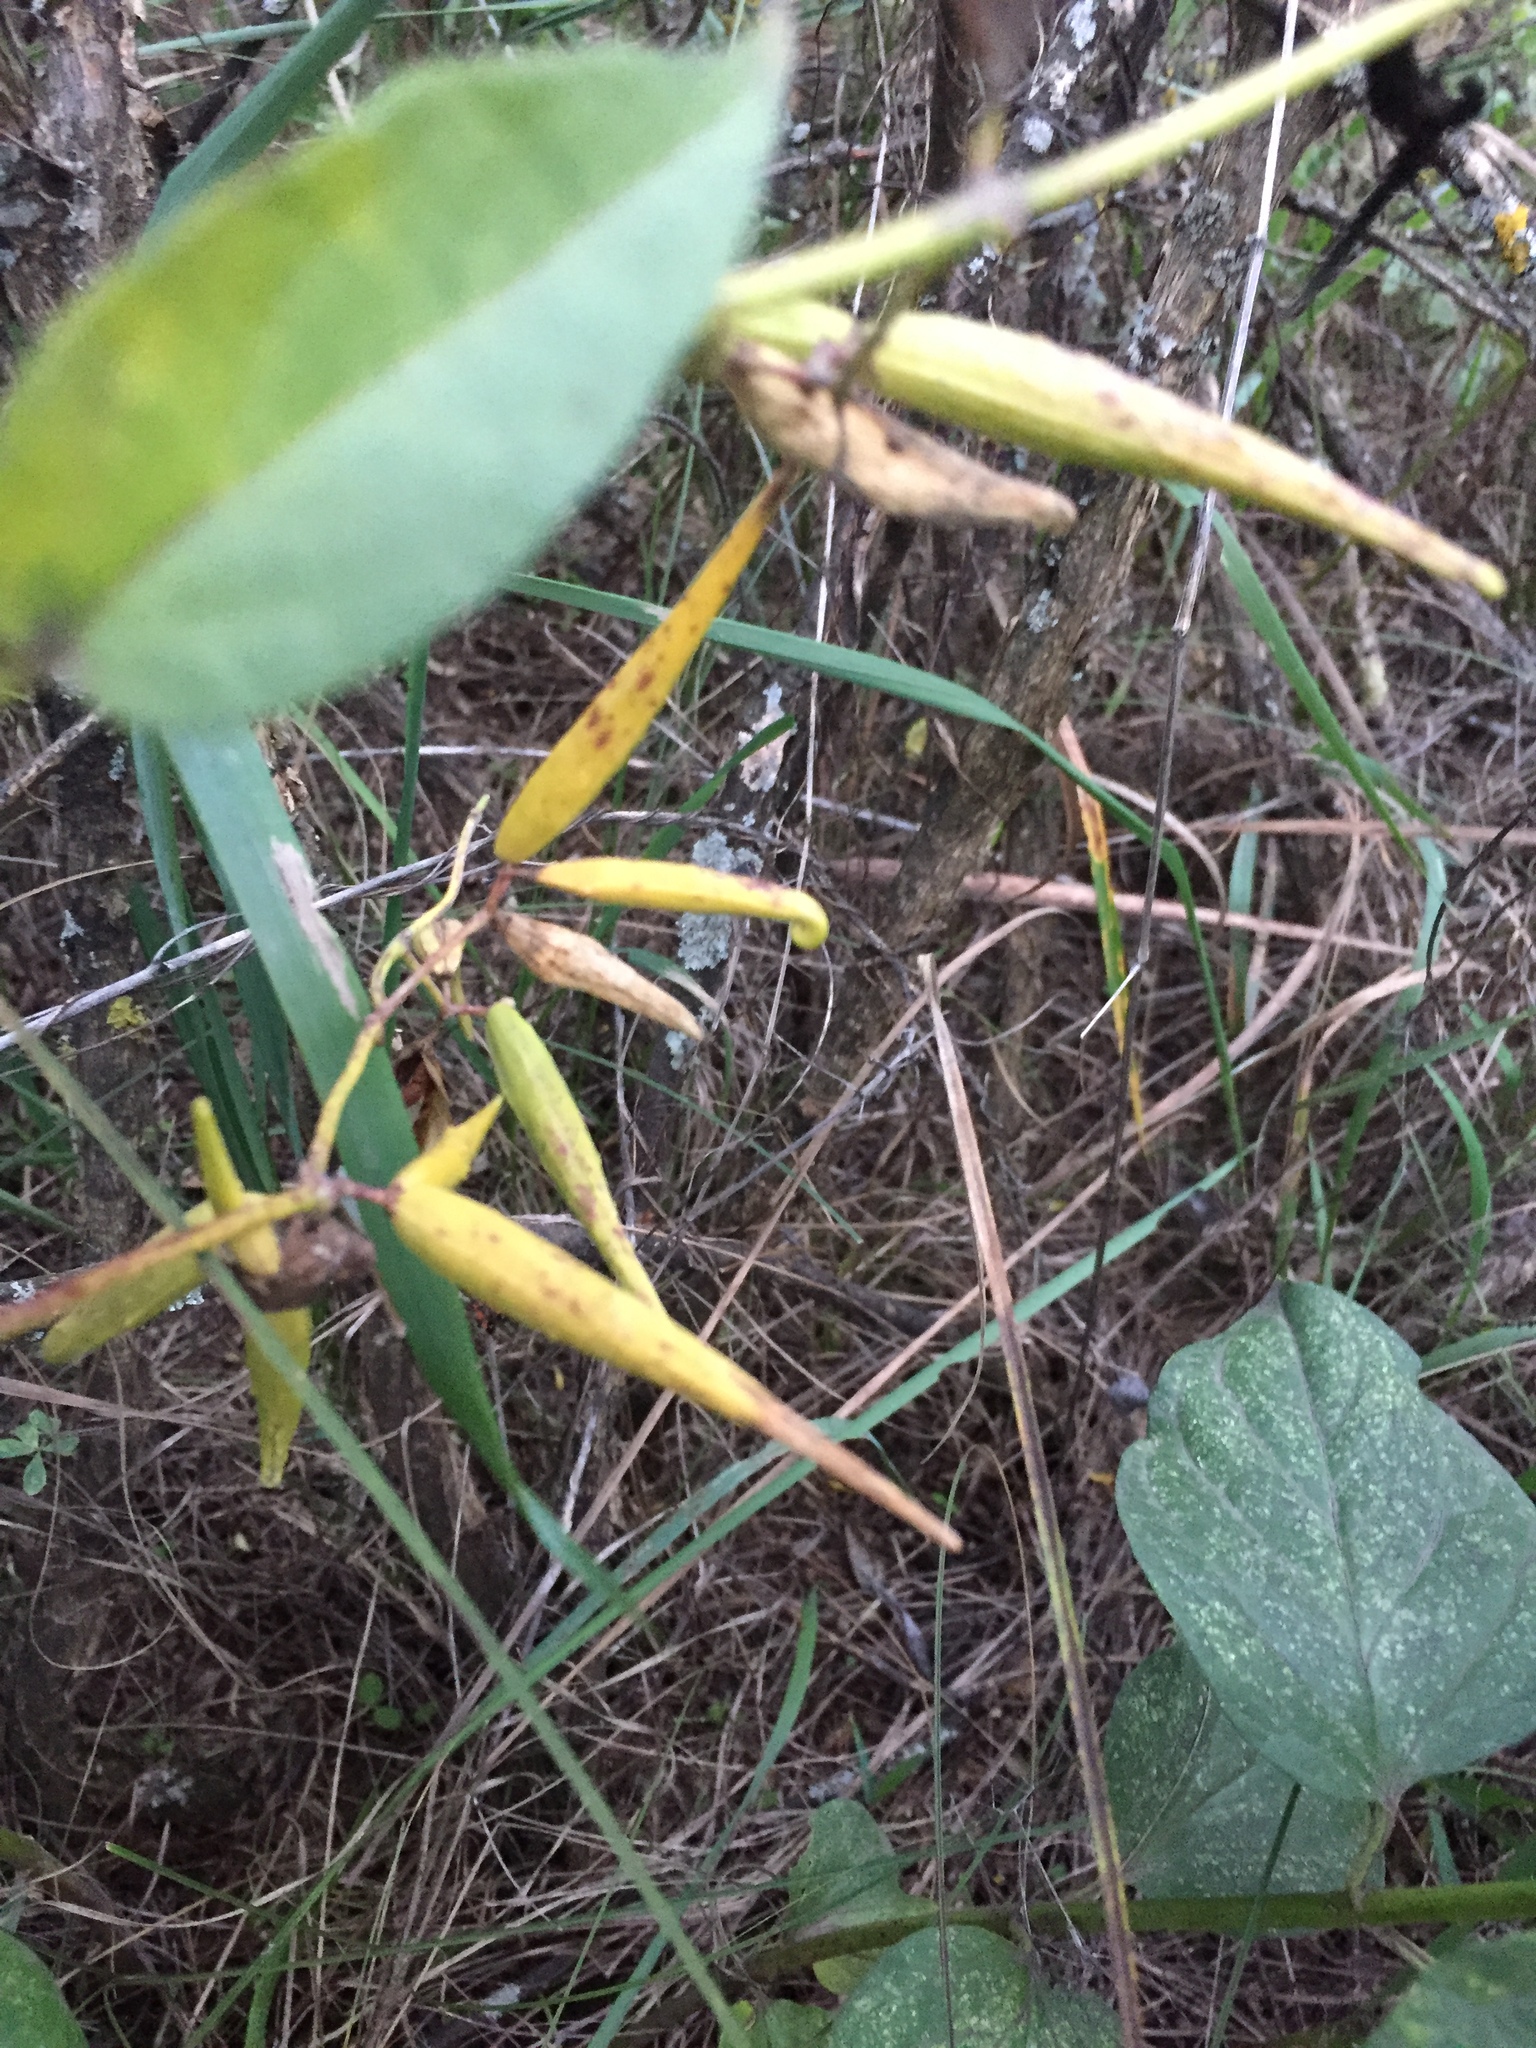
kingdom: Plantae
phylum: Tracheophyta
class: Magnoliopsida
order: Gentianales
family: Apocynaceae
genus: Vincetoxicum
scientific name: Vincetoxicum hirundinaria
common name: White swallowwort
